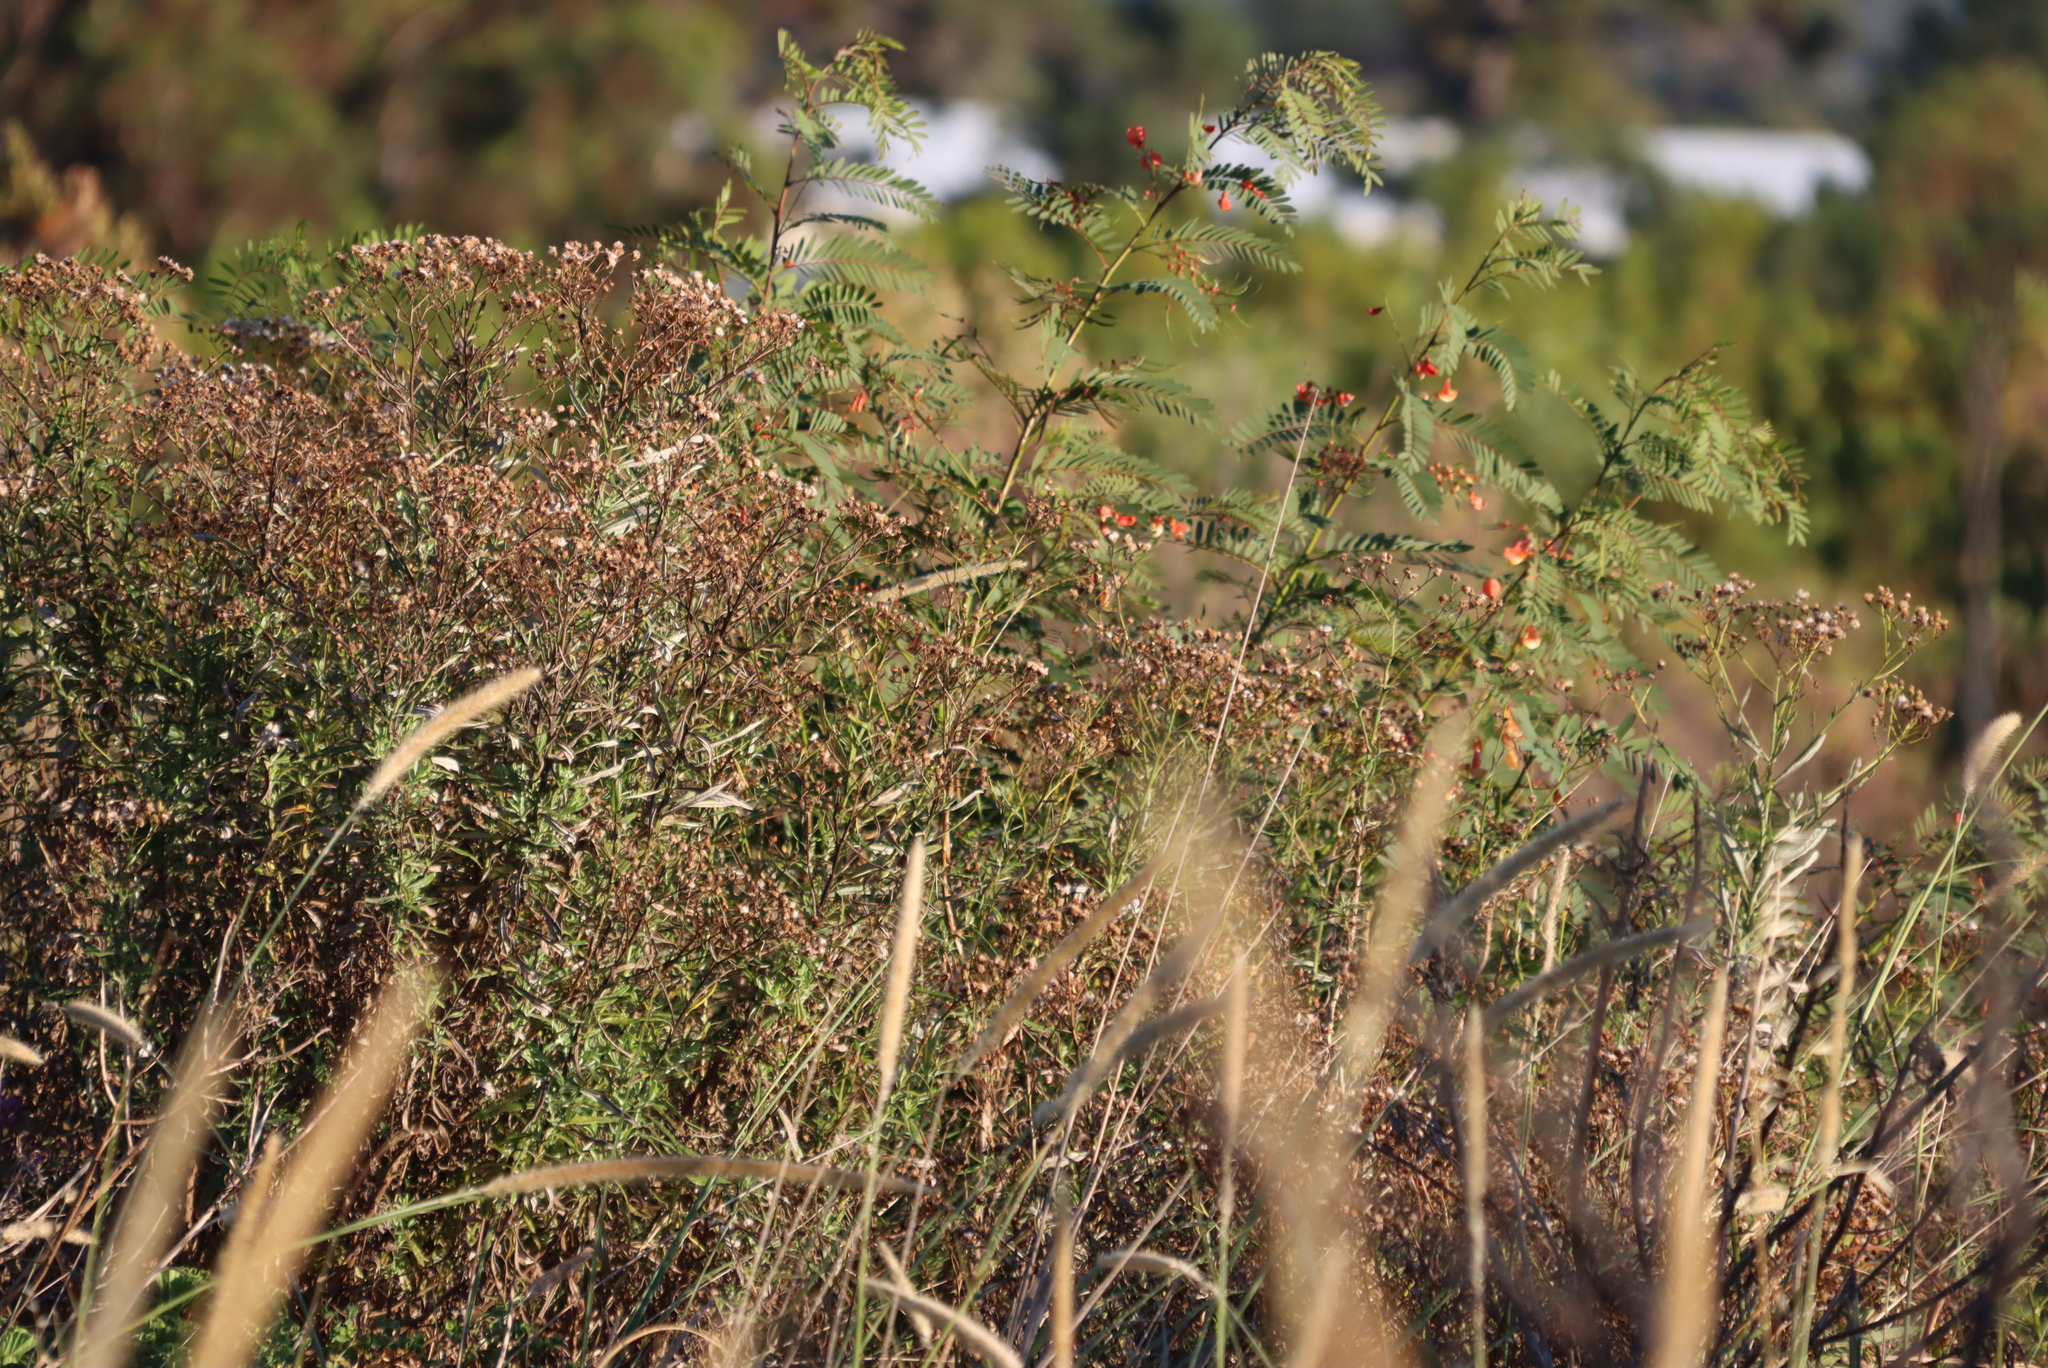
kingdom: Plantae
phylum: Tracheophyta
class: Magnoliopsida
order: Fabales
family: Fabaceae
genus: Sesbania
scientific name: Sesbania punicea
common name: Rattlebox
